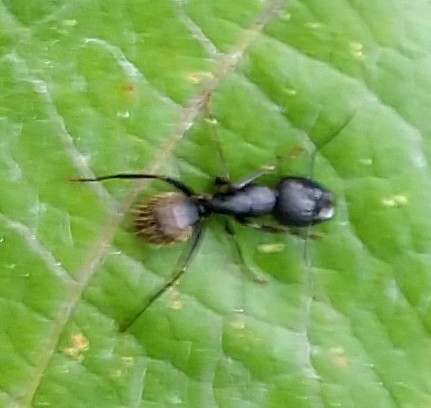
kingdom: Animalia
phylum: Arthropoda
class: Insecta
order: Hymenoptera
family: Formicidae
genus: Camponotus
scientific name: Camponotus pennsylvanicus
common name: Black carpenter ant
